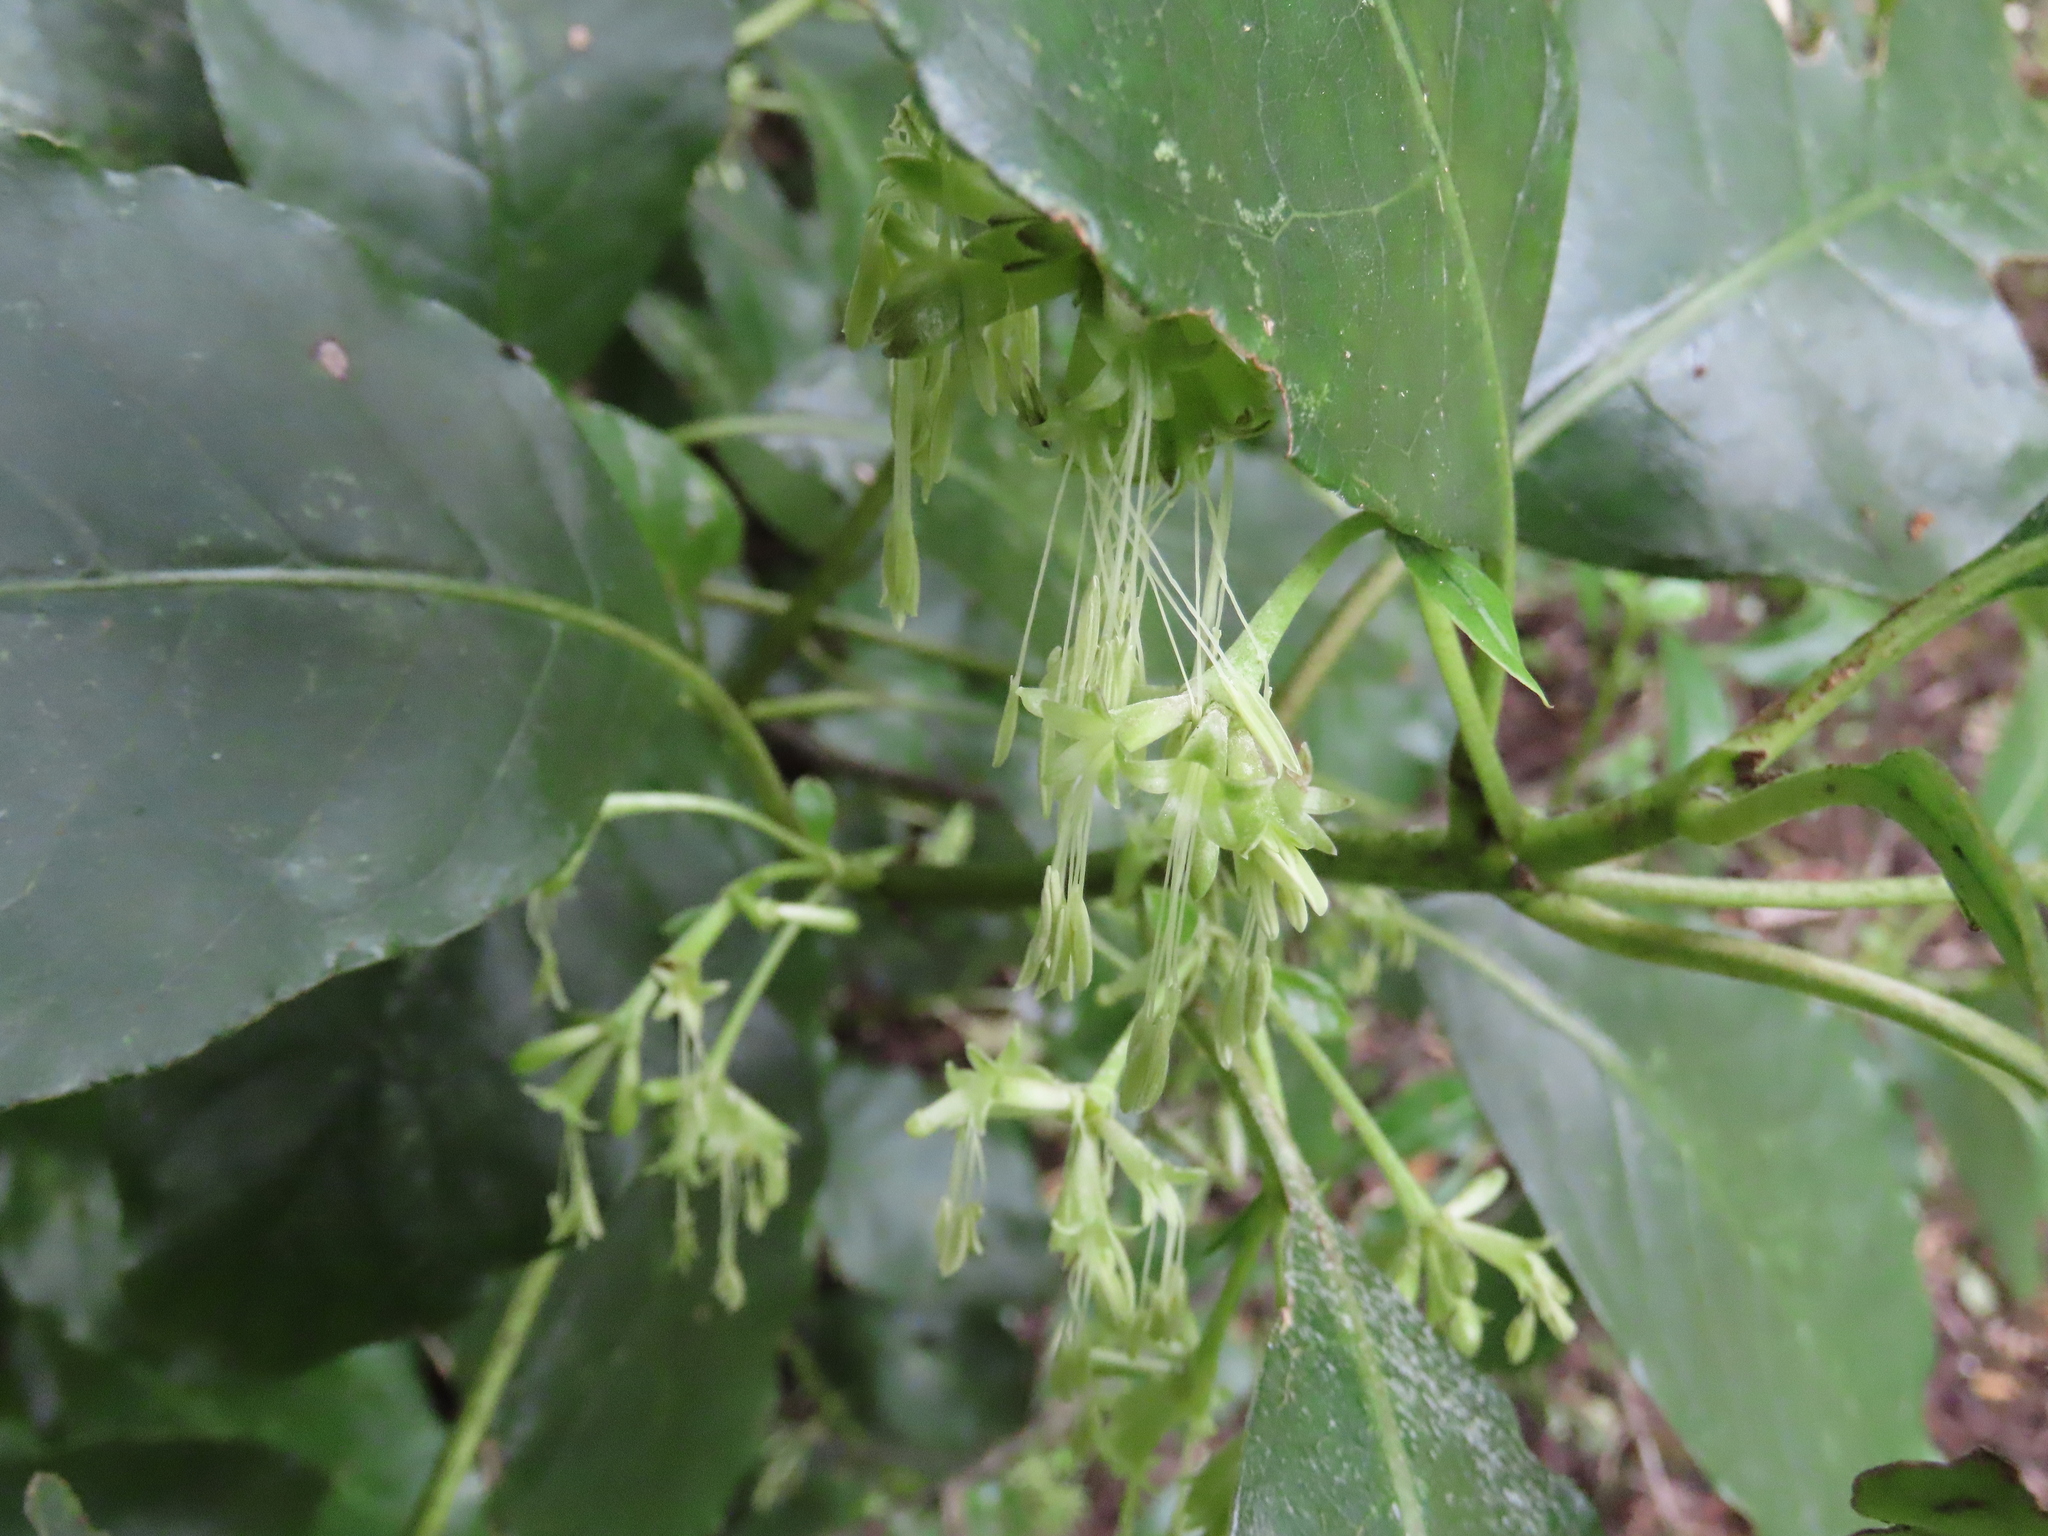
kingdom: Plantae
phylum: Tracheophyta
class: Magnoliopsida
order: Gentianales
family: Rubiaceae
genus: Coprosma
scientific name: Coprosma autumnalis
